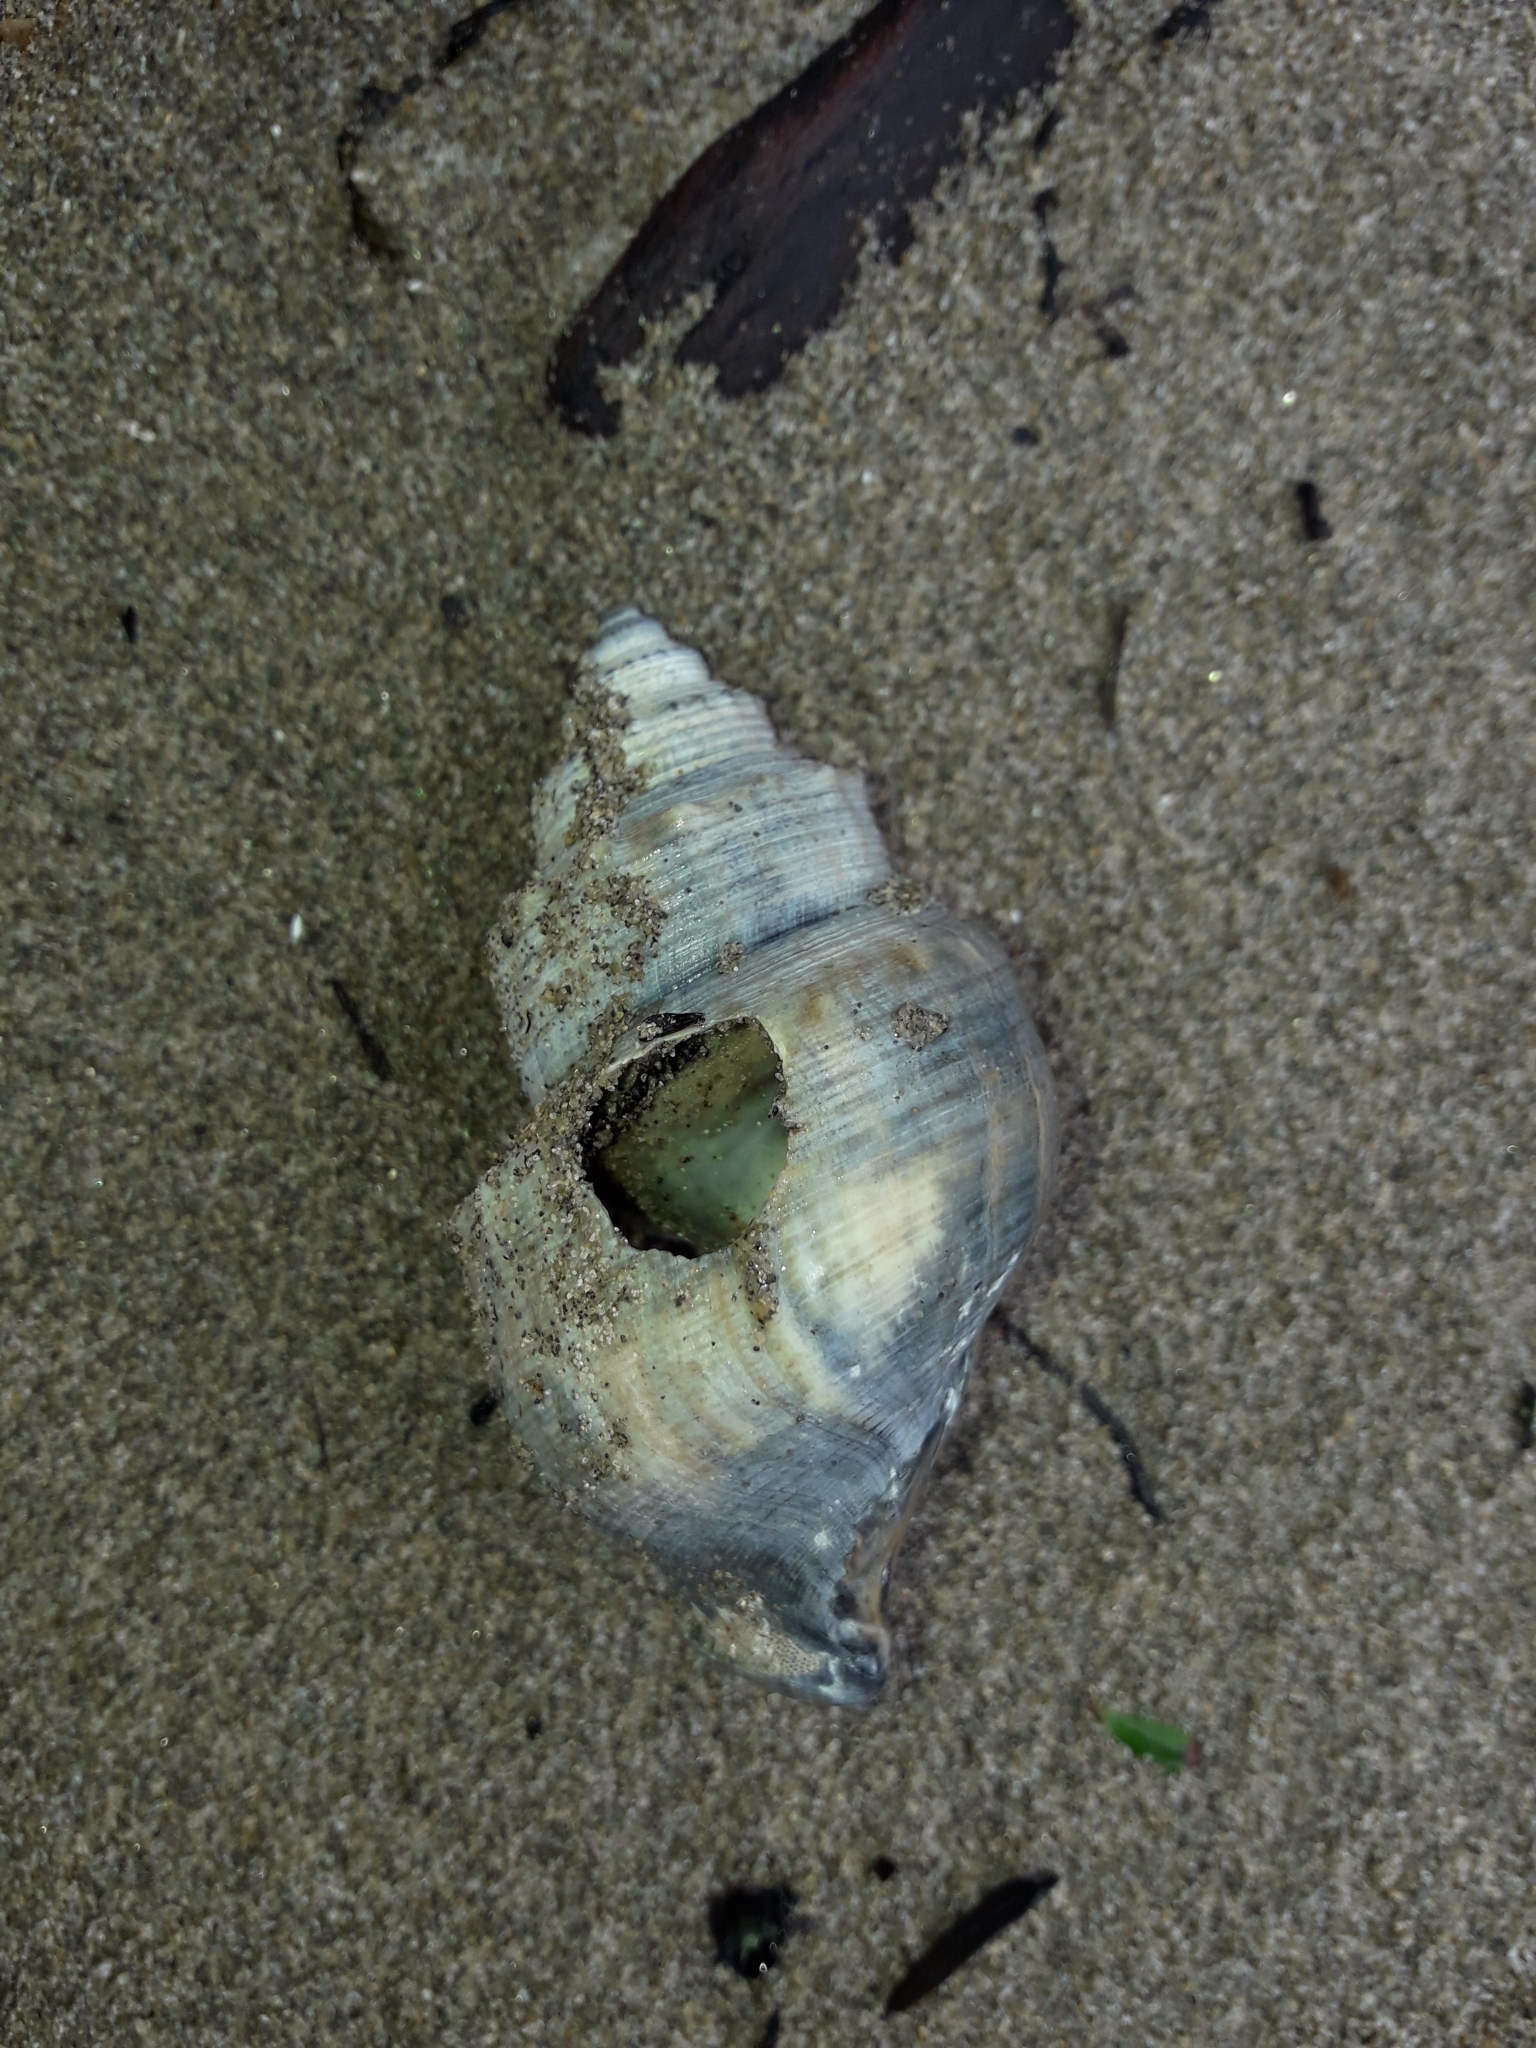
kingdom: Animalia
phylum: Mollusca
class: Gastropoda
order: Littorinimorpha
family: Struthiolariidae
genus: Struthiolaria
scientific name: Struthiolaria papulosa
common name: Large ostrich foot
